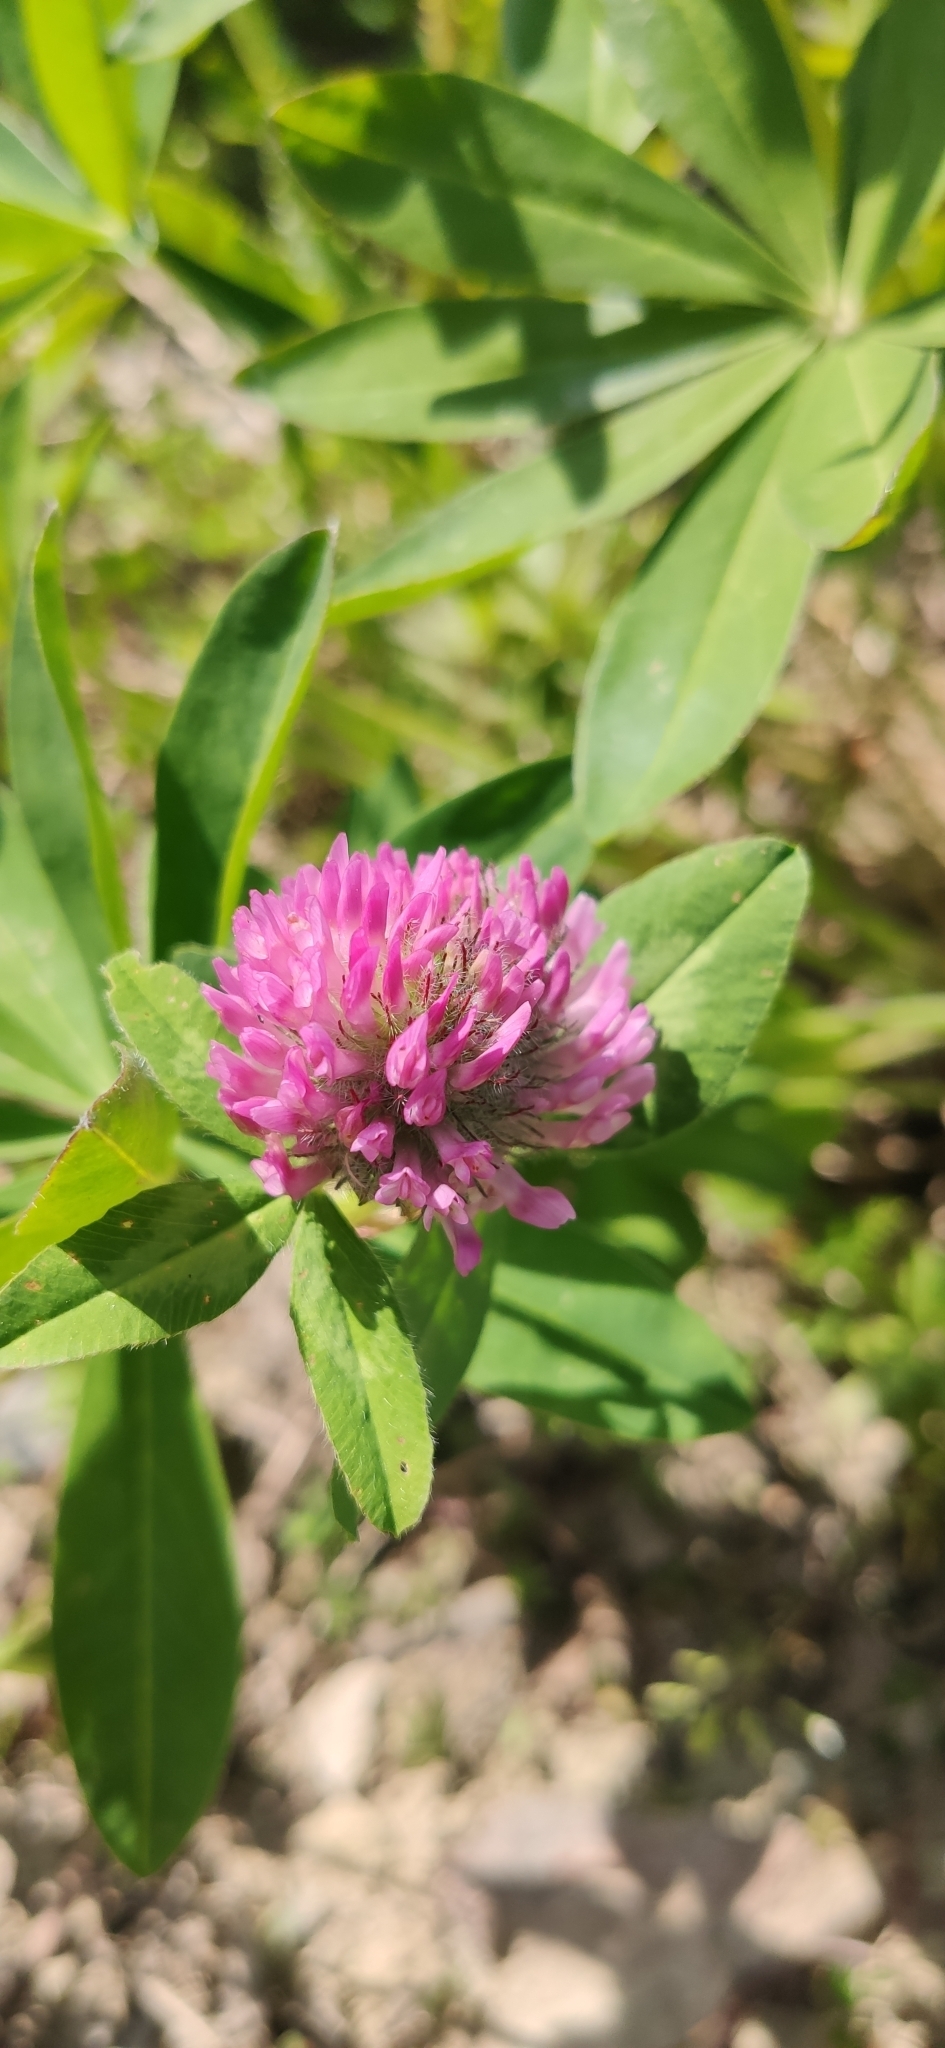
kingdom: Plantae
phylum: Tracheophyta
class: Magnoliopsida
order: Fabales
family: Fabaceae
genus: Trifolium
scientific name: Trifolium pratense
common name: Red clover
